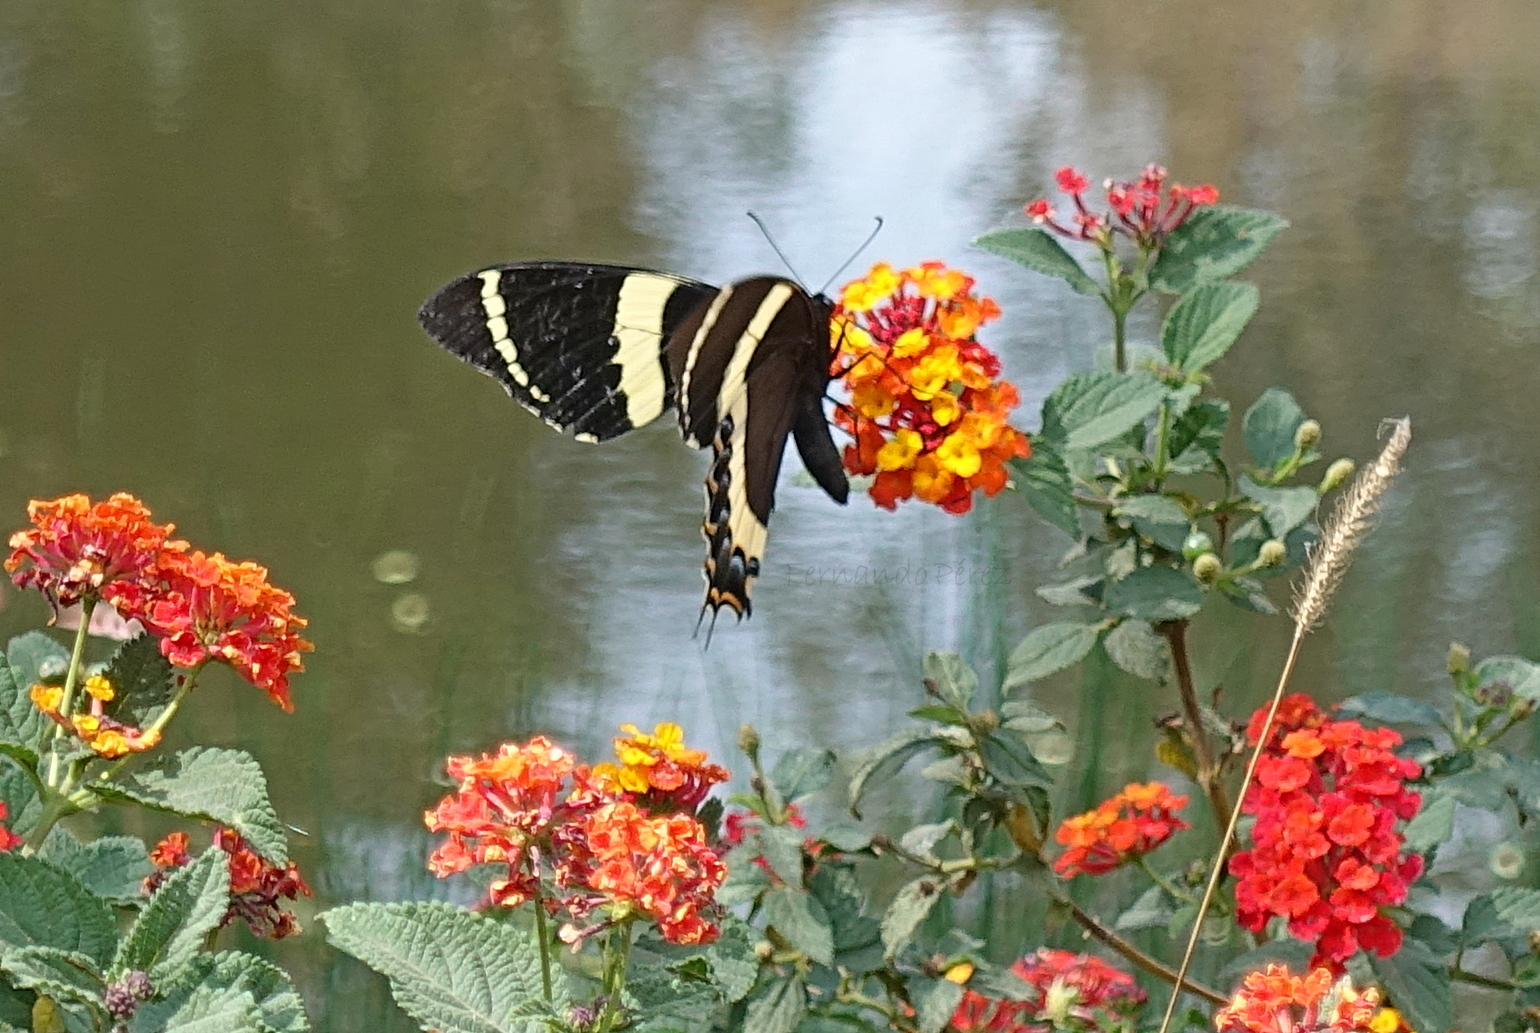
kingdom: Animalia
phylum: Arthropoda
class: Insecta
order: Lepidoptera
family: Papilionidae
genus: Papilio
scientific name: Papilio garamas
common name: Magnificent swallowtail
